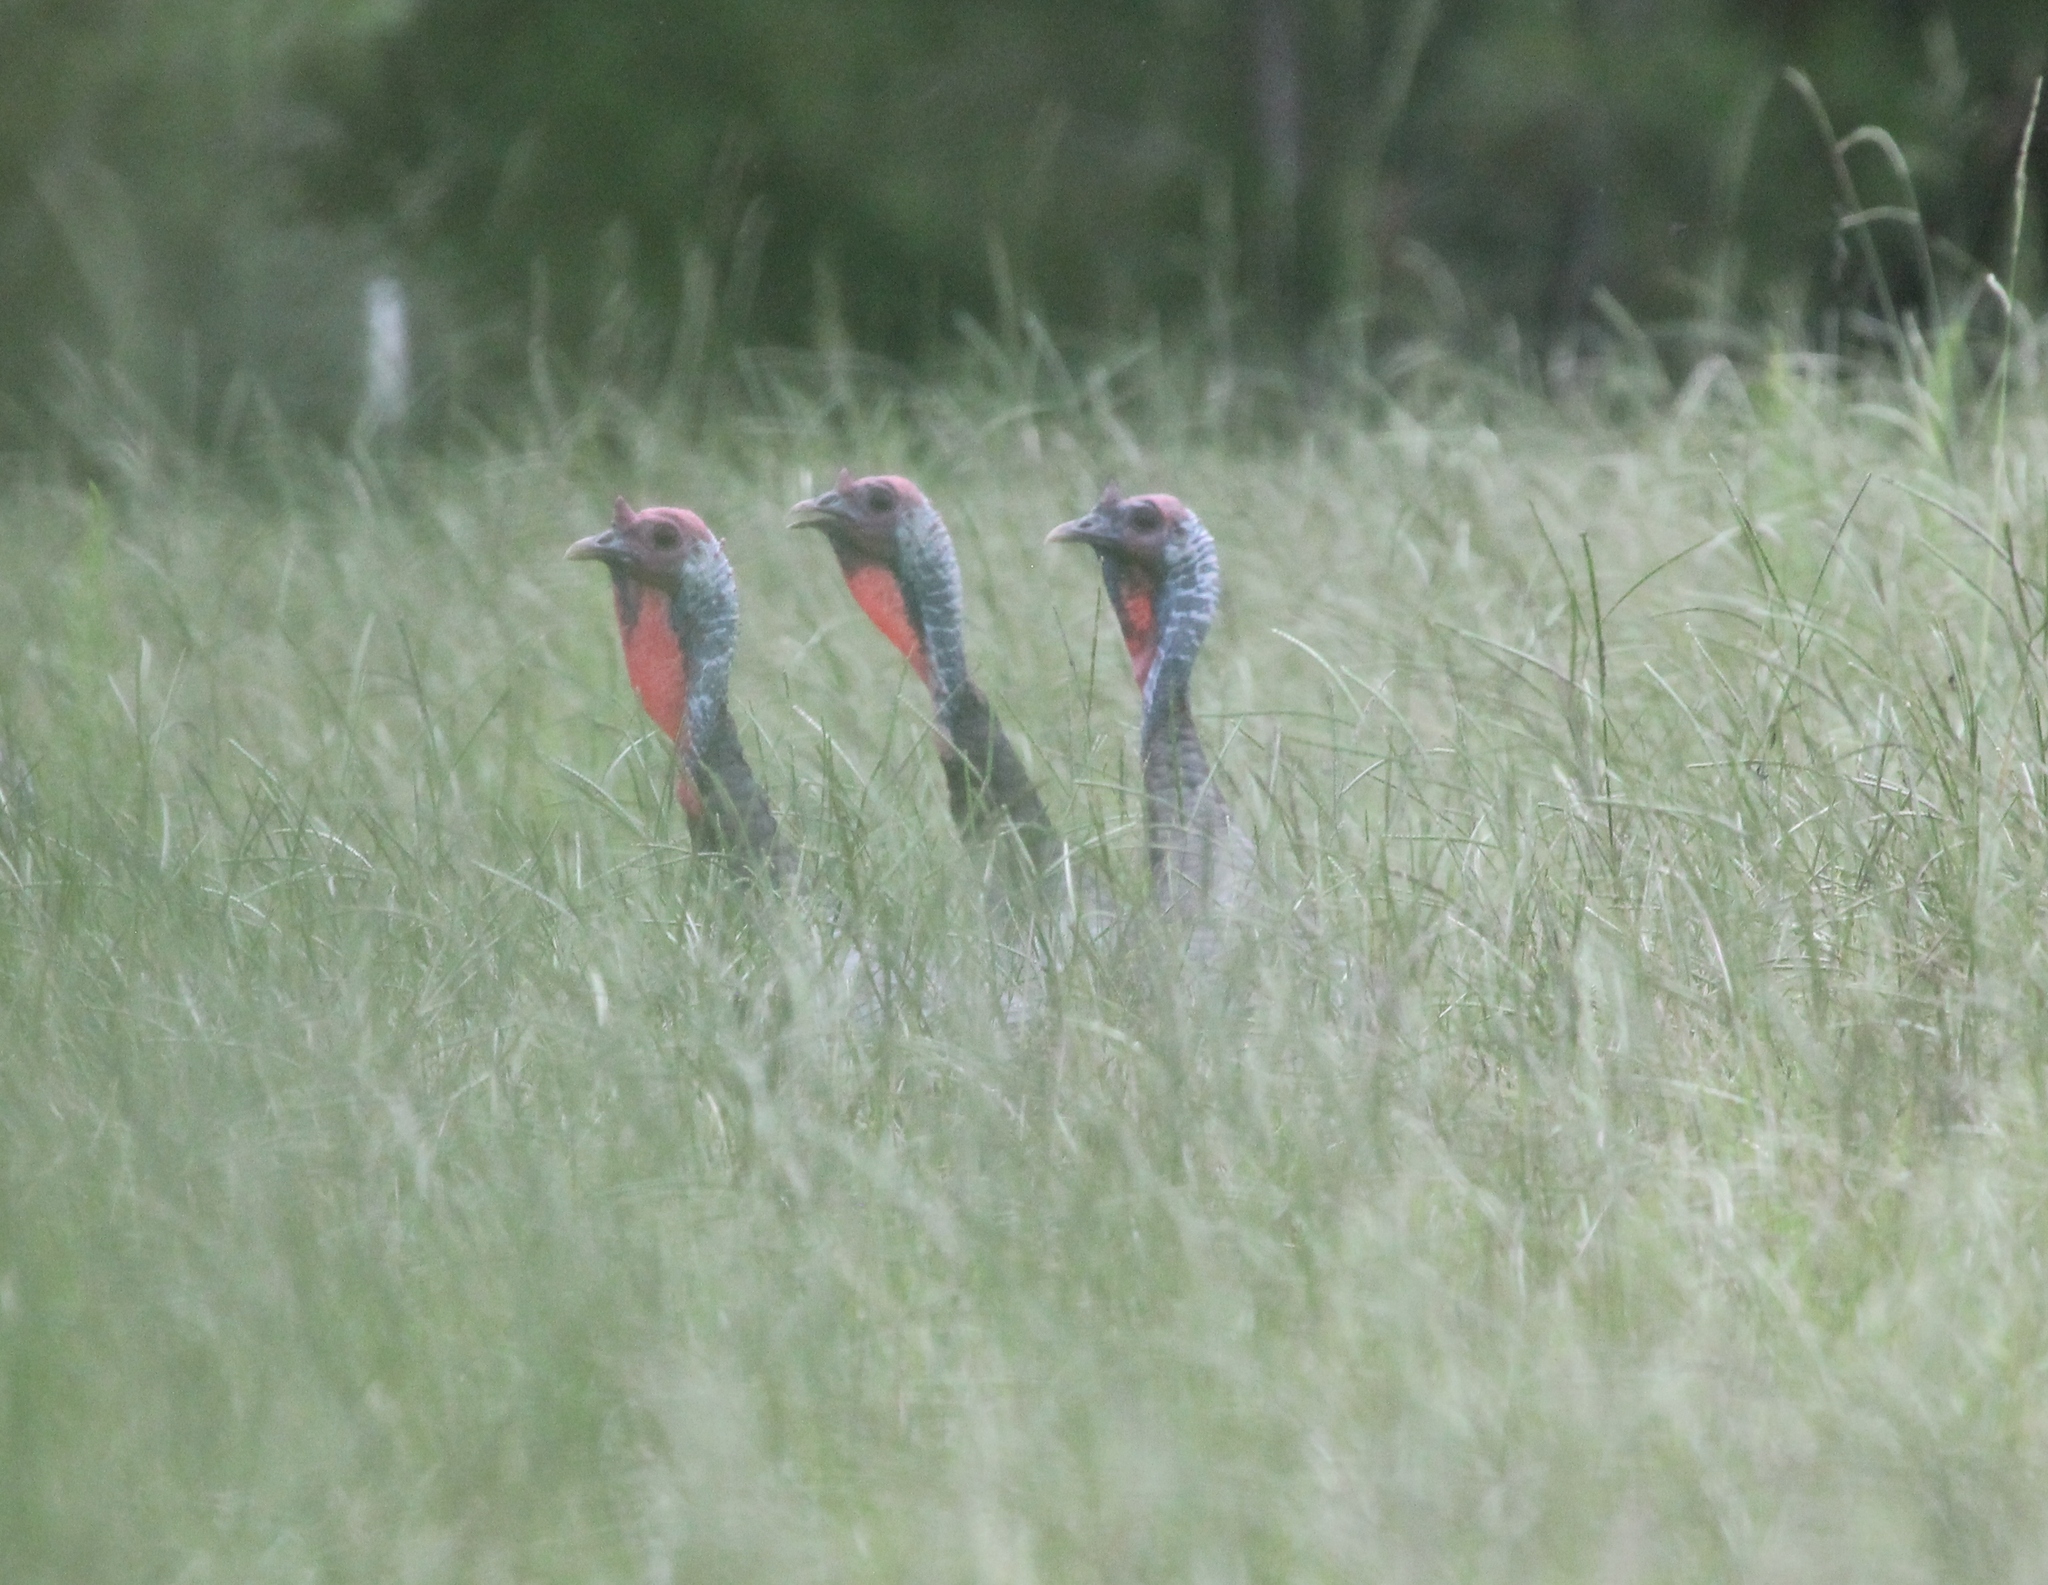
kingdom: Animalia
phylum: Chordata
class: Aves
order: Galliformes
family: Phasianidae
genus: Meleagris
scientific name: Meleagris gallopavo
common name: Wild turkey
